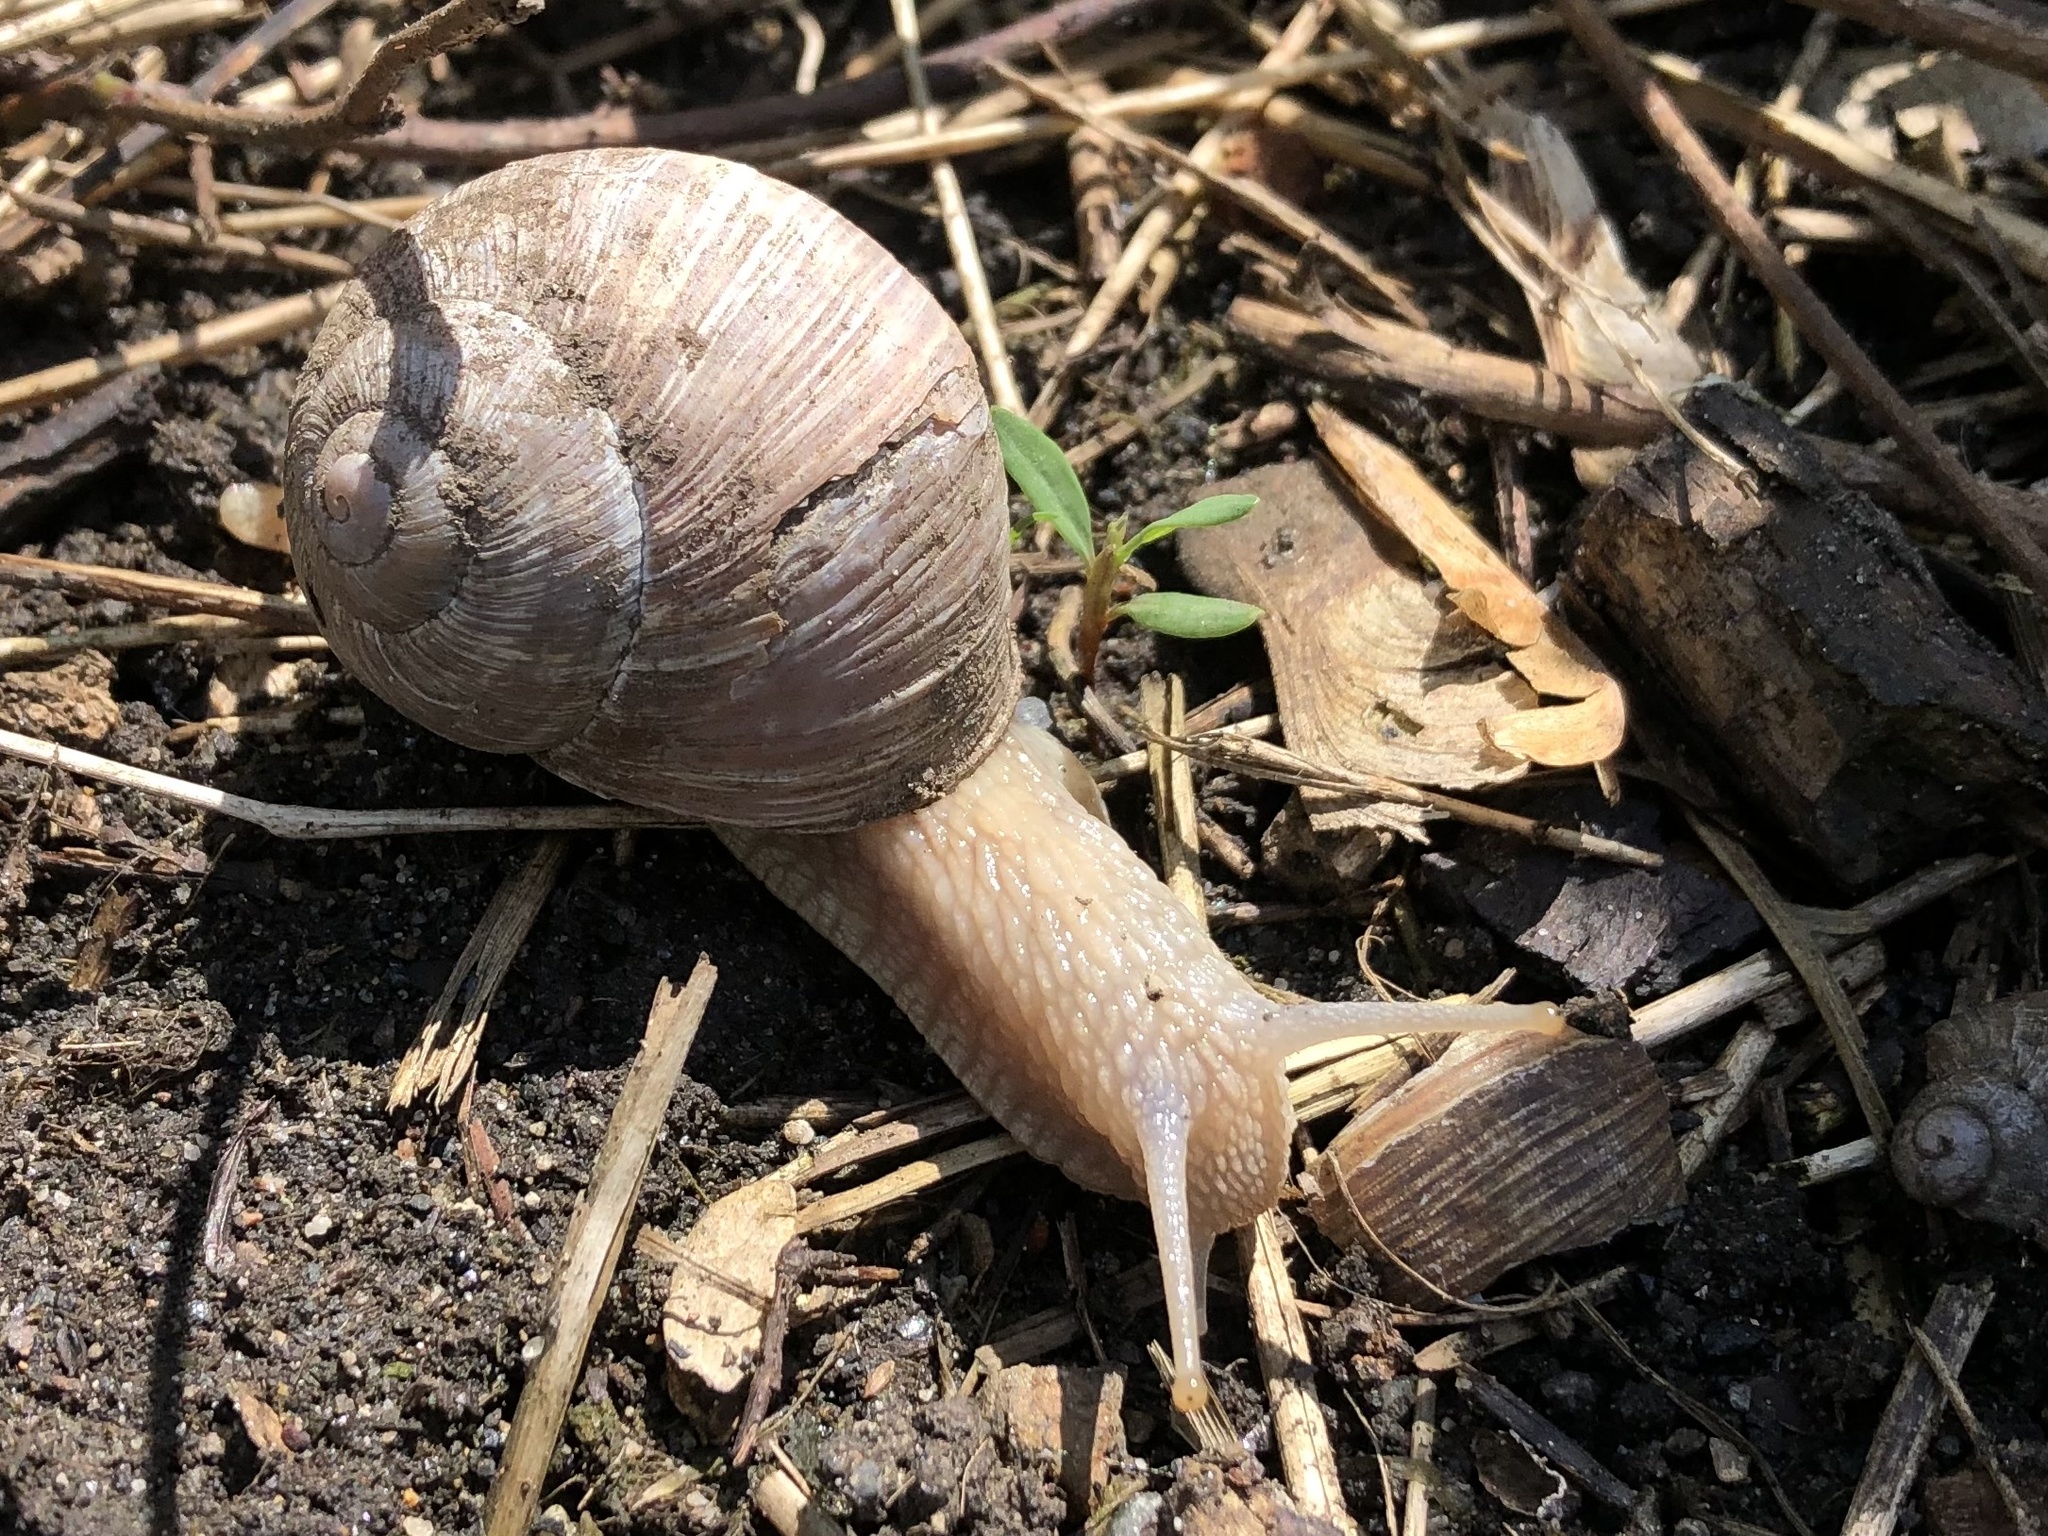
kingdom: Animalia
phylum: Mollusca
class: Gastropoda
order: Stylommatophora
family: Helicidae
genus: Helix
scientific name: Helix pomatia
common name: Roman snail
